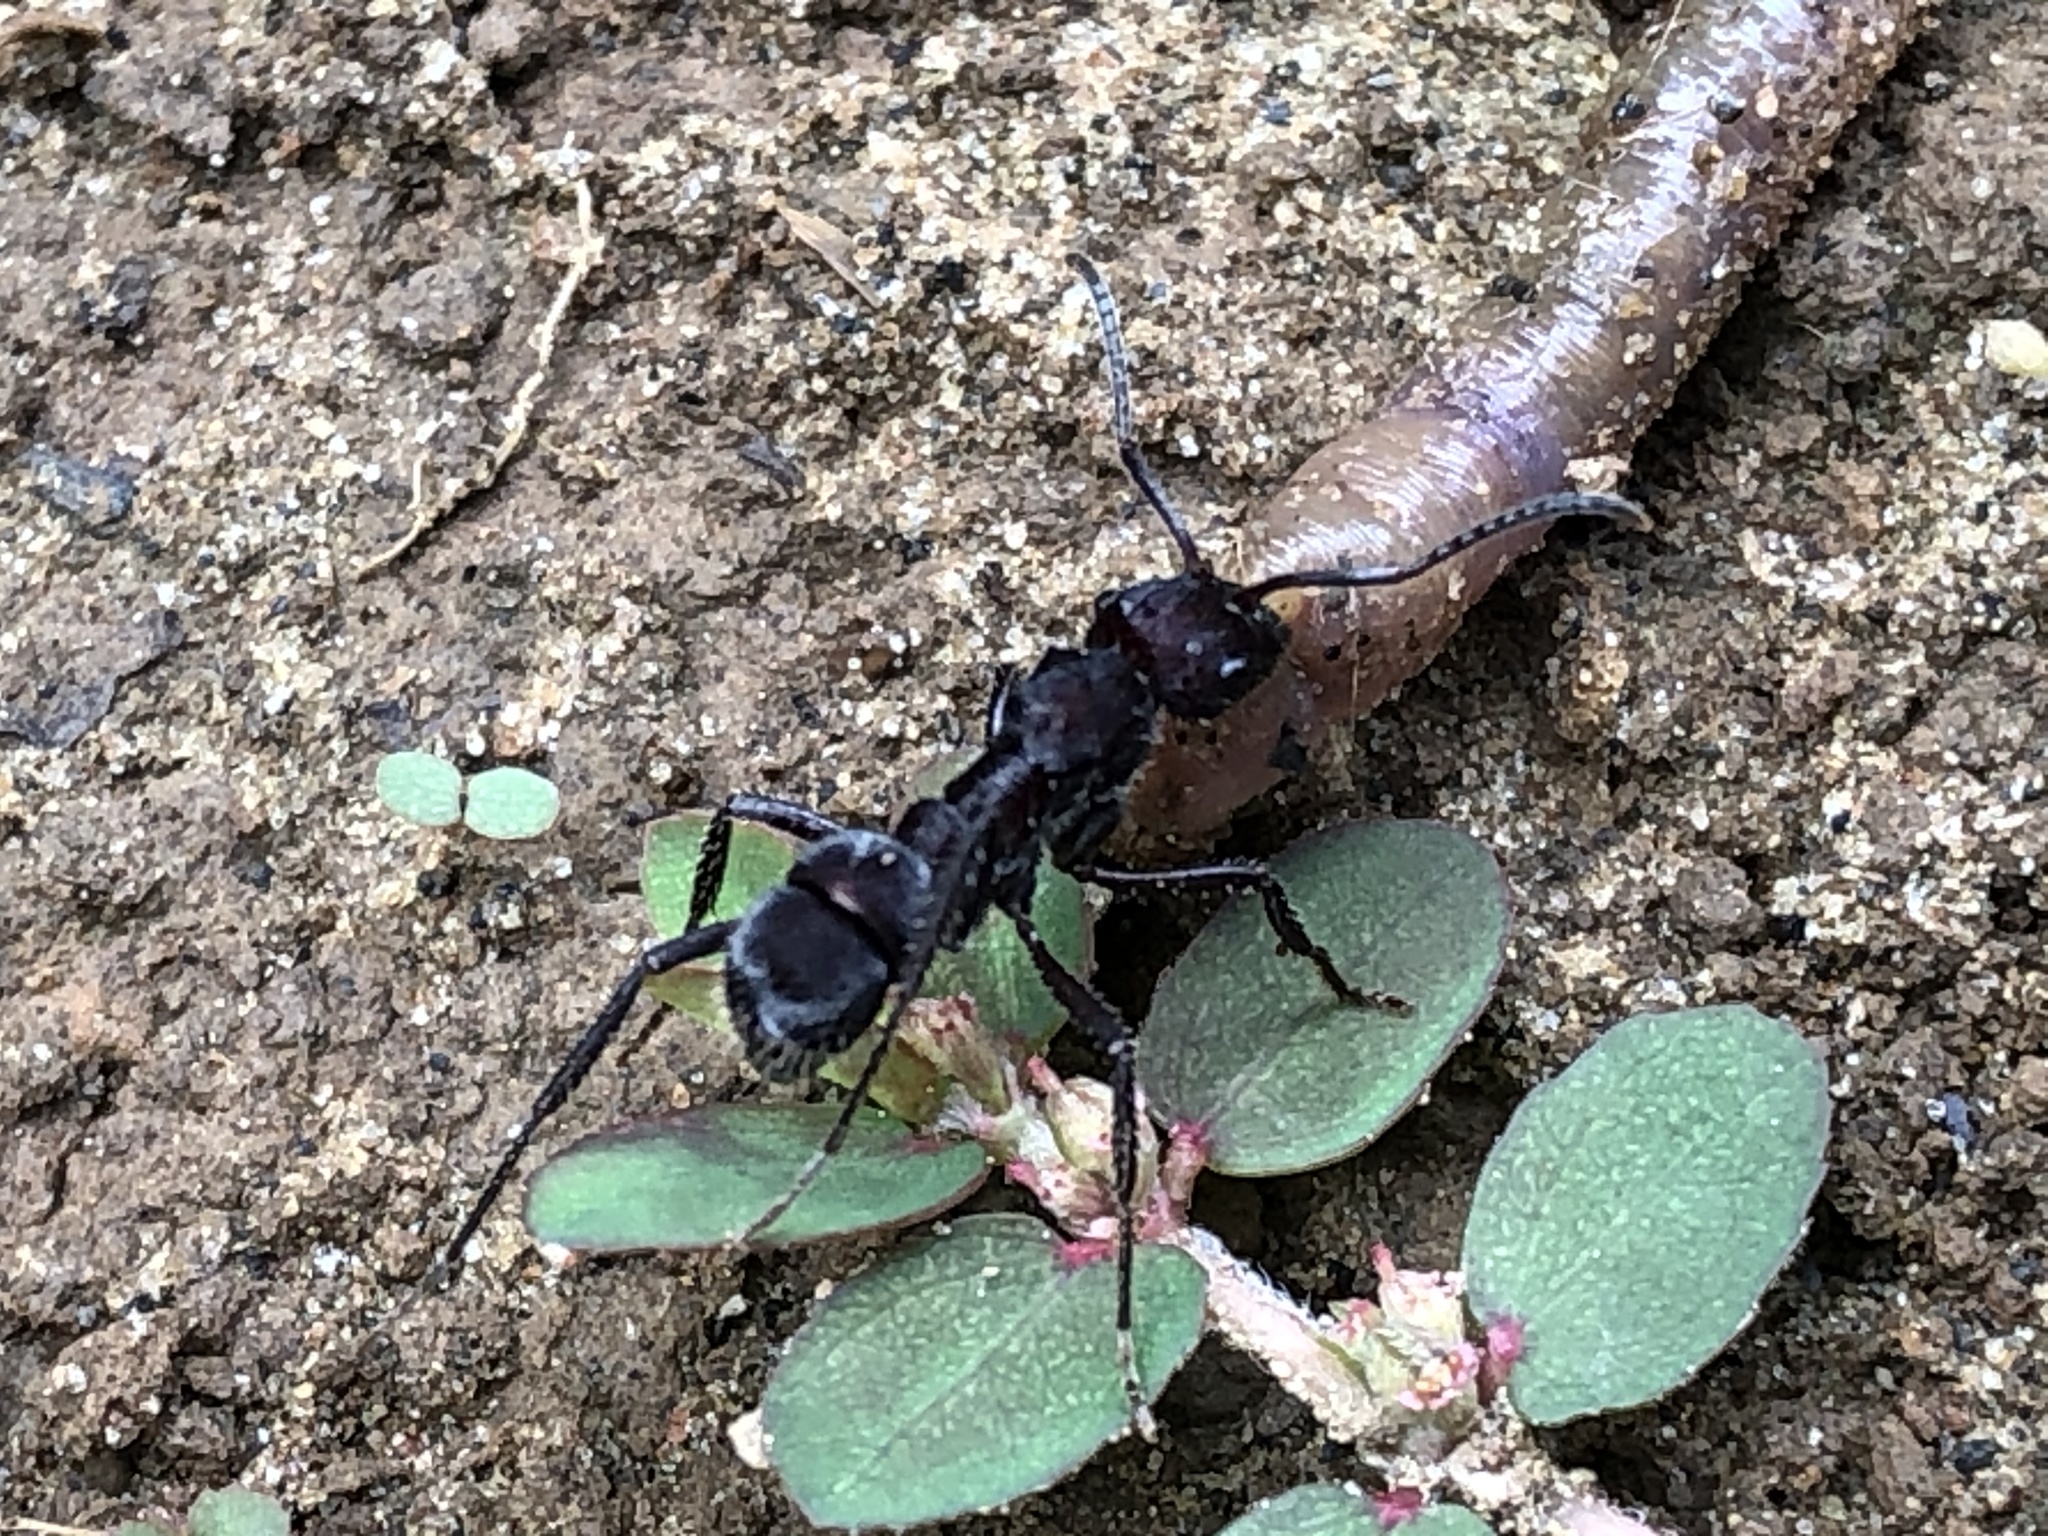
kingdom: Plantae
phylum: Tracheophyta
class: Magnoliopsida
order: Malpighiales
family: Euphorbiaceae
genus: Euphorbia
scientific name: Euphorbia thymifolia
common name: Gulf sandmat
